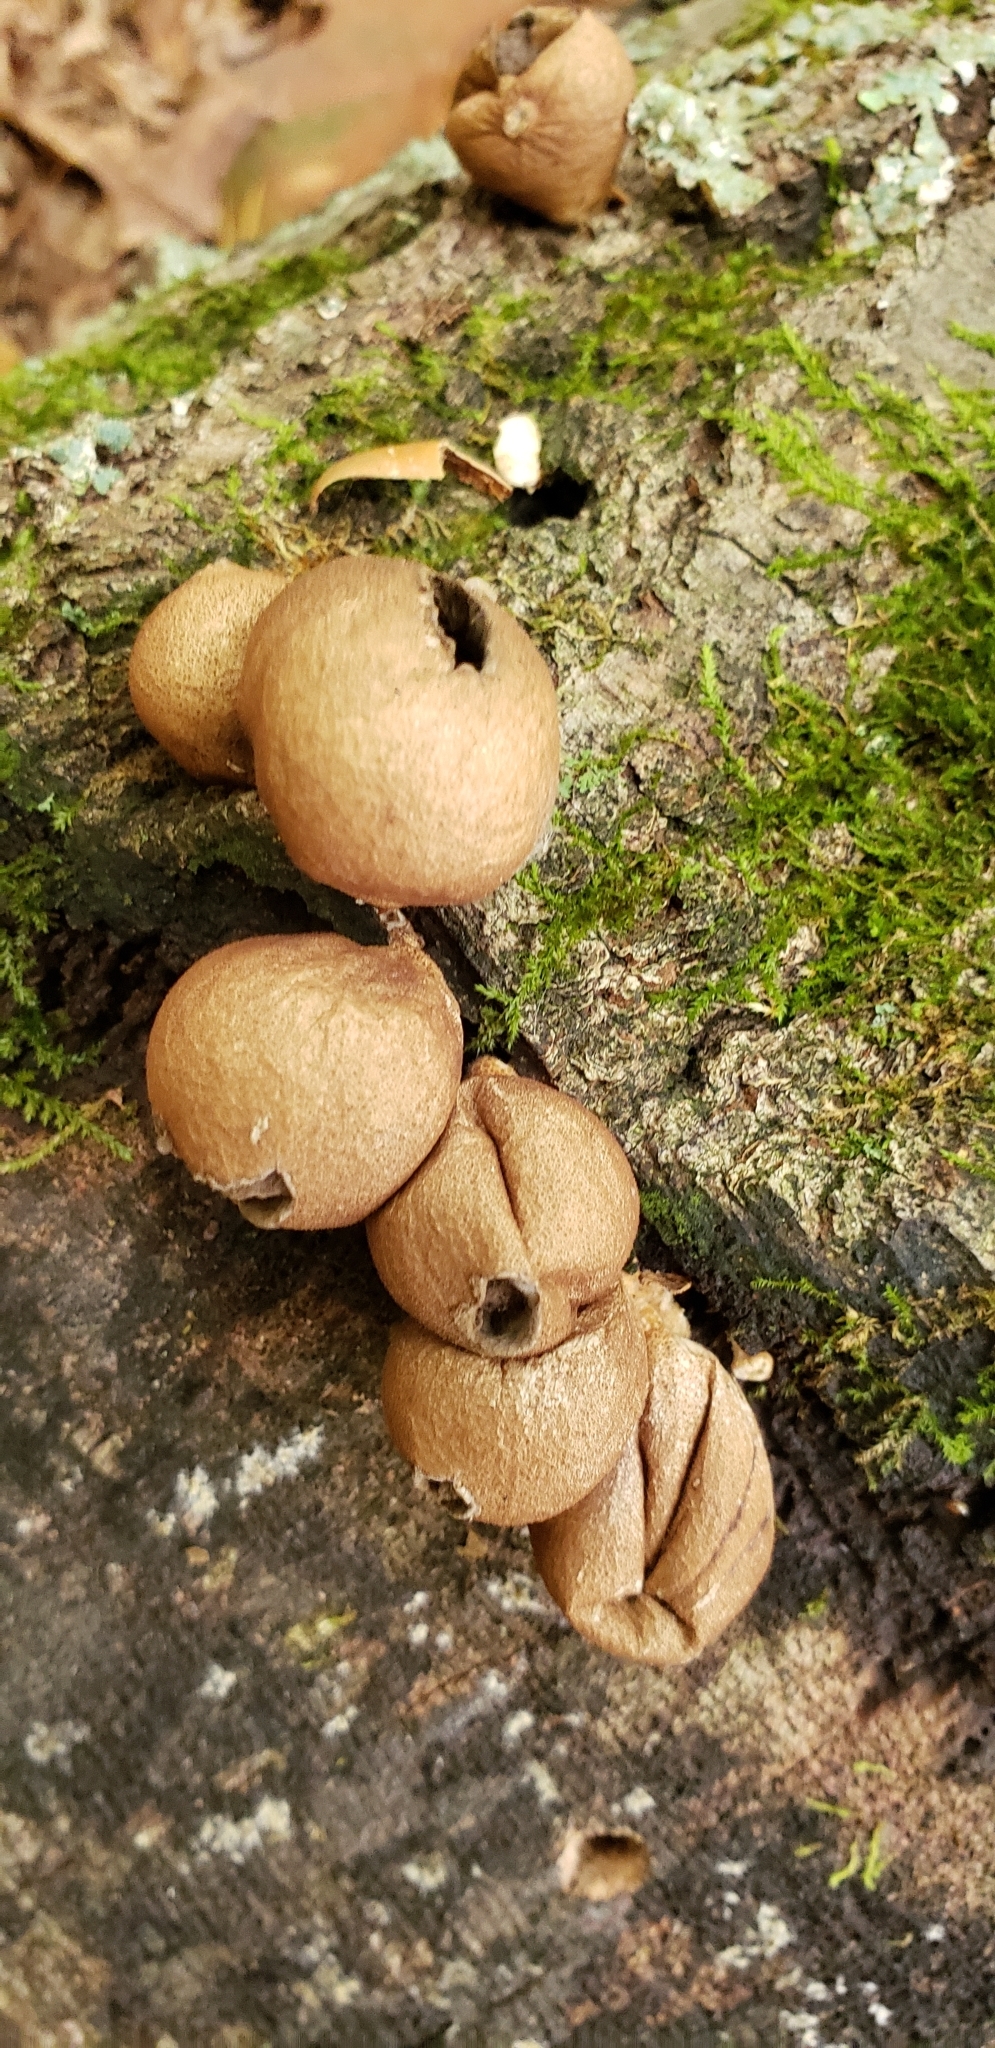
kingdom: Fungi
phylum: Basidiomycota
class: Agaricomycetes
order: Agaricales
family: Lycoperdaceae
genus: Apioperdon
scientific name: Apioperdon pyriforme
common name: Pear-shaped puffball
